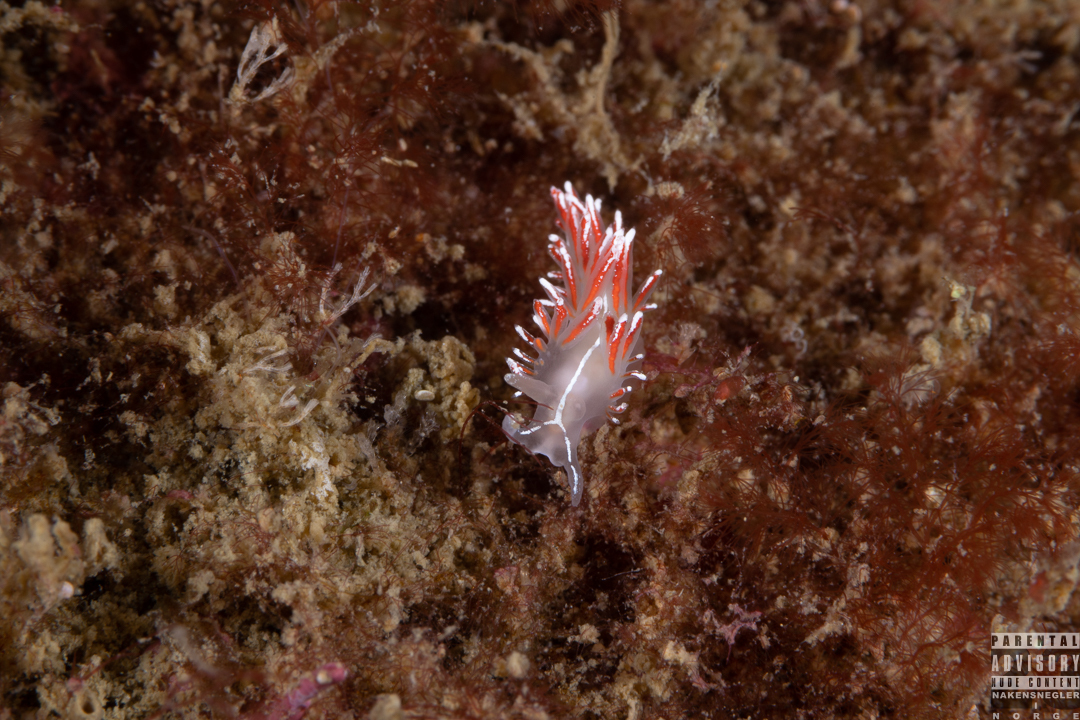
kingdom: Animalia
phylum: Mollusca
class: Gastropoda
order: Nudibranchia
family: Coryphellidae
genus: Coryphella
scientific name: Coryphella lineata
